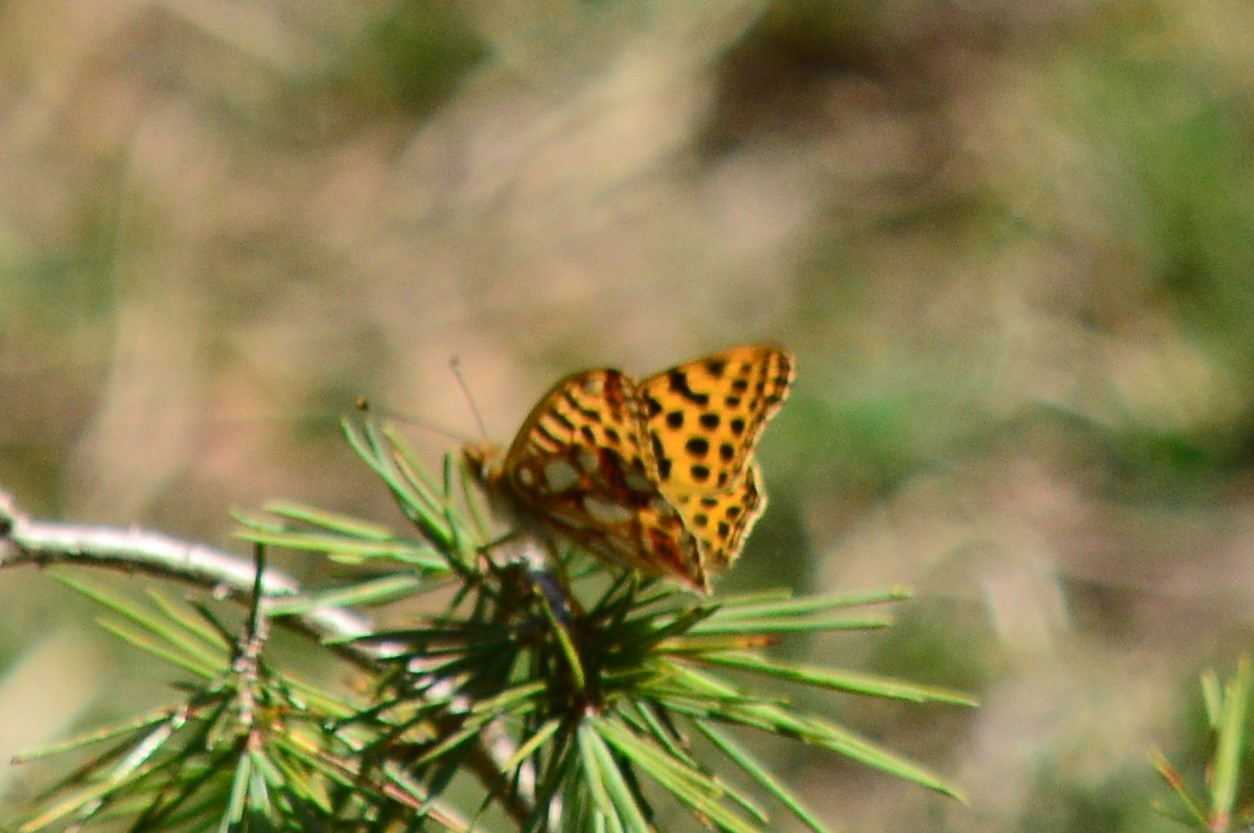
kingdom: Animalia
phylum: Arthropoda
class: Insecta
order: Lepidoptera
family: Nymphalidae
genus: Issoria
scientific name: Issoria
